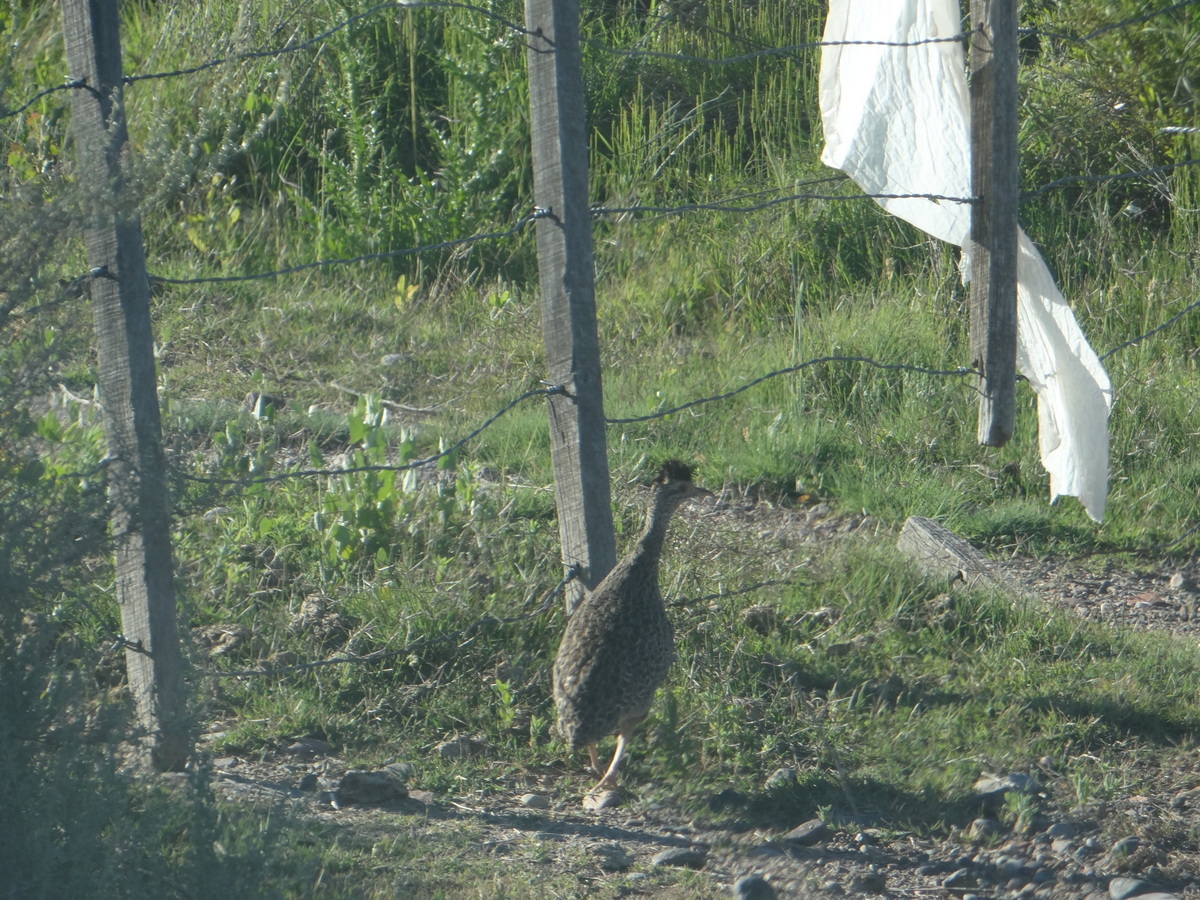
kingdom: Animalia
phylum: Chordata
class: Aves
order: Tinamiformes
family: Tinamidae
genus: Nothoprocta
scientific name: Nothoprocta cinerascens
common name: Brushland tinamou
